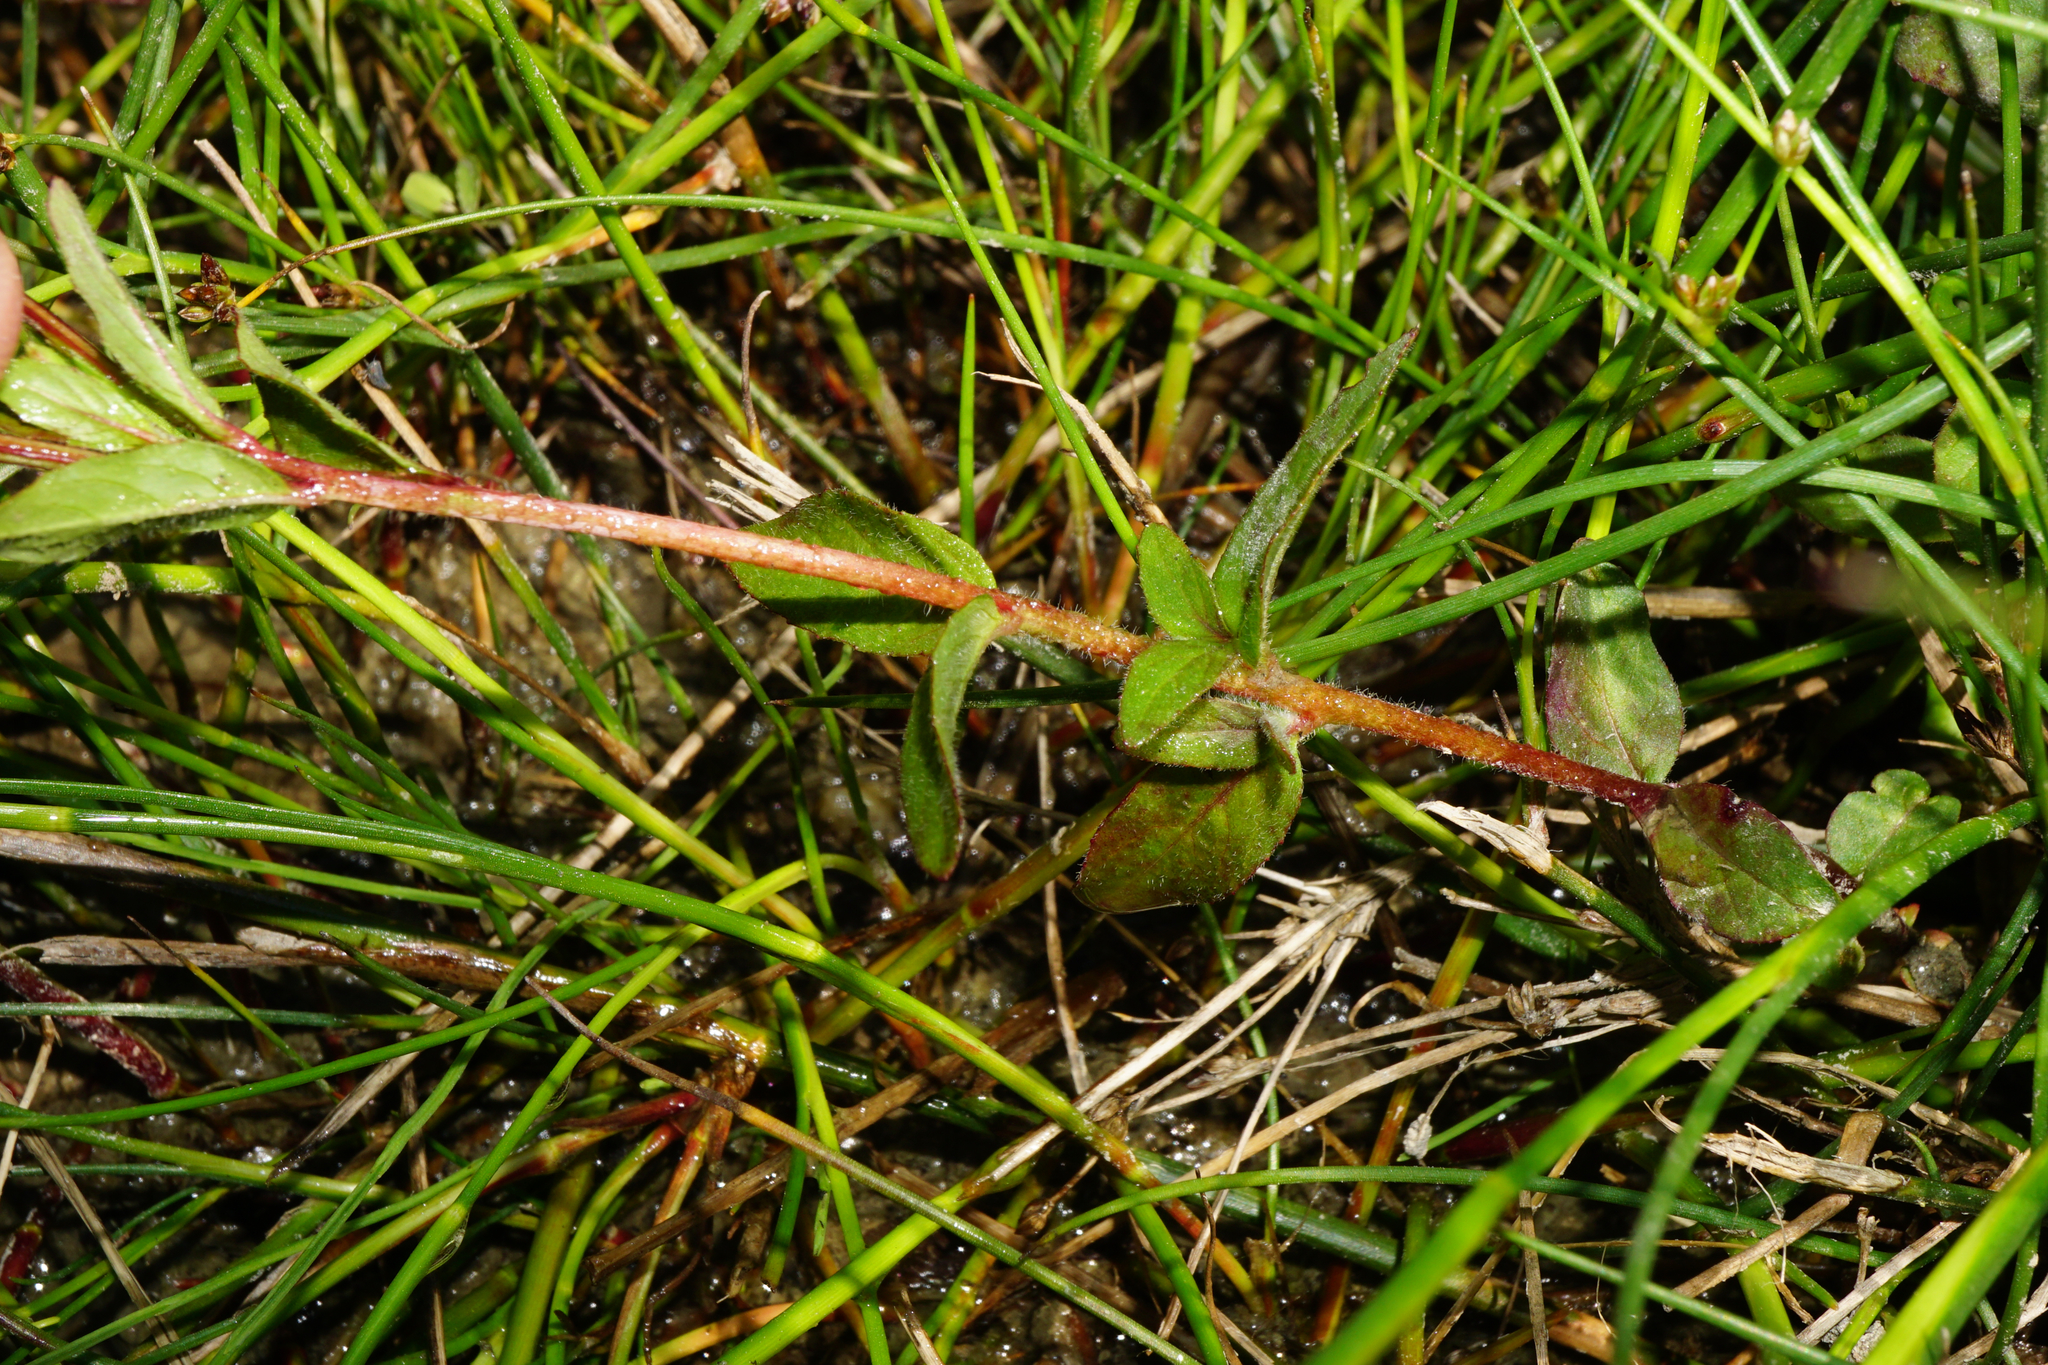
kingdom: Plantae
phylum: Tracheophyta
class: Magnoliopsida
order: Myrtales
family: Onagraceae
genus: Epilobium
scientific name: Epilobium parviflorum
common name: Hoary willowherb
